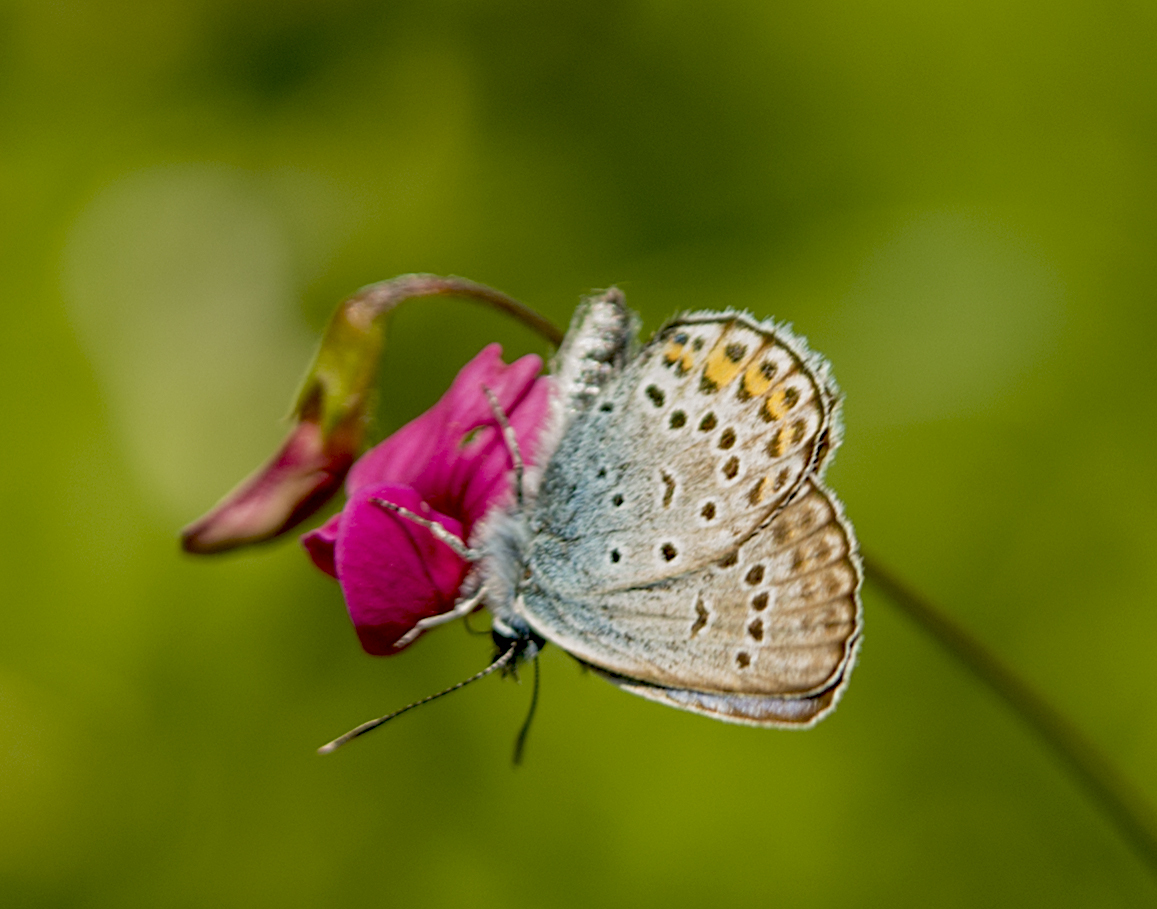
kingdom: Animalia
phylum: Arthropoda
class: Insecta
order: Lepidoptera
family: Lycaenidae
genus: Plebejus
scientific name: Plebejus argus
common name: Silver-studded blue
